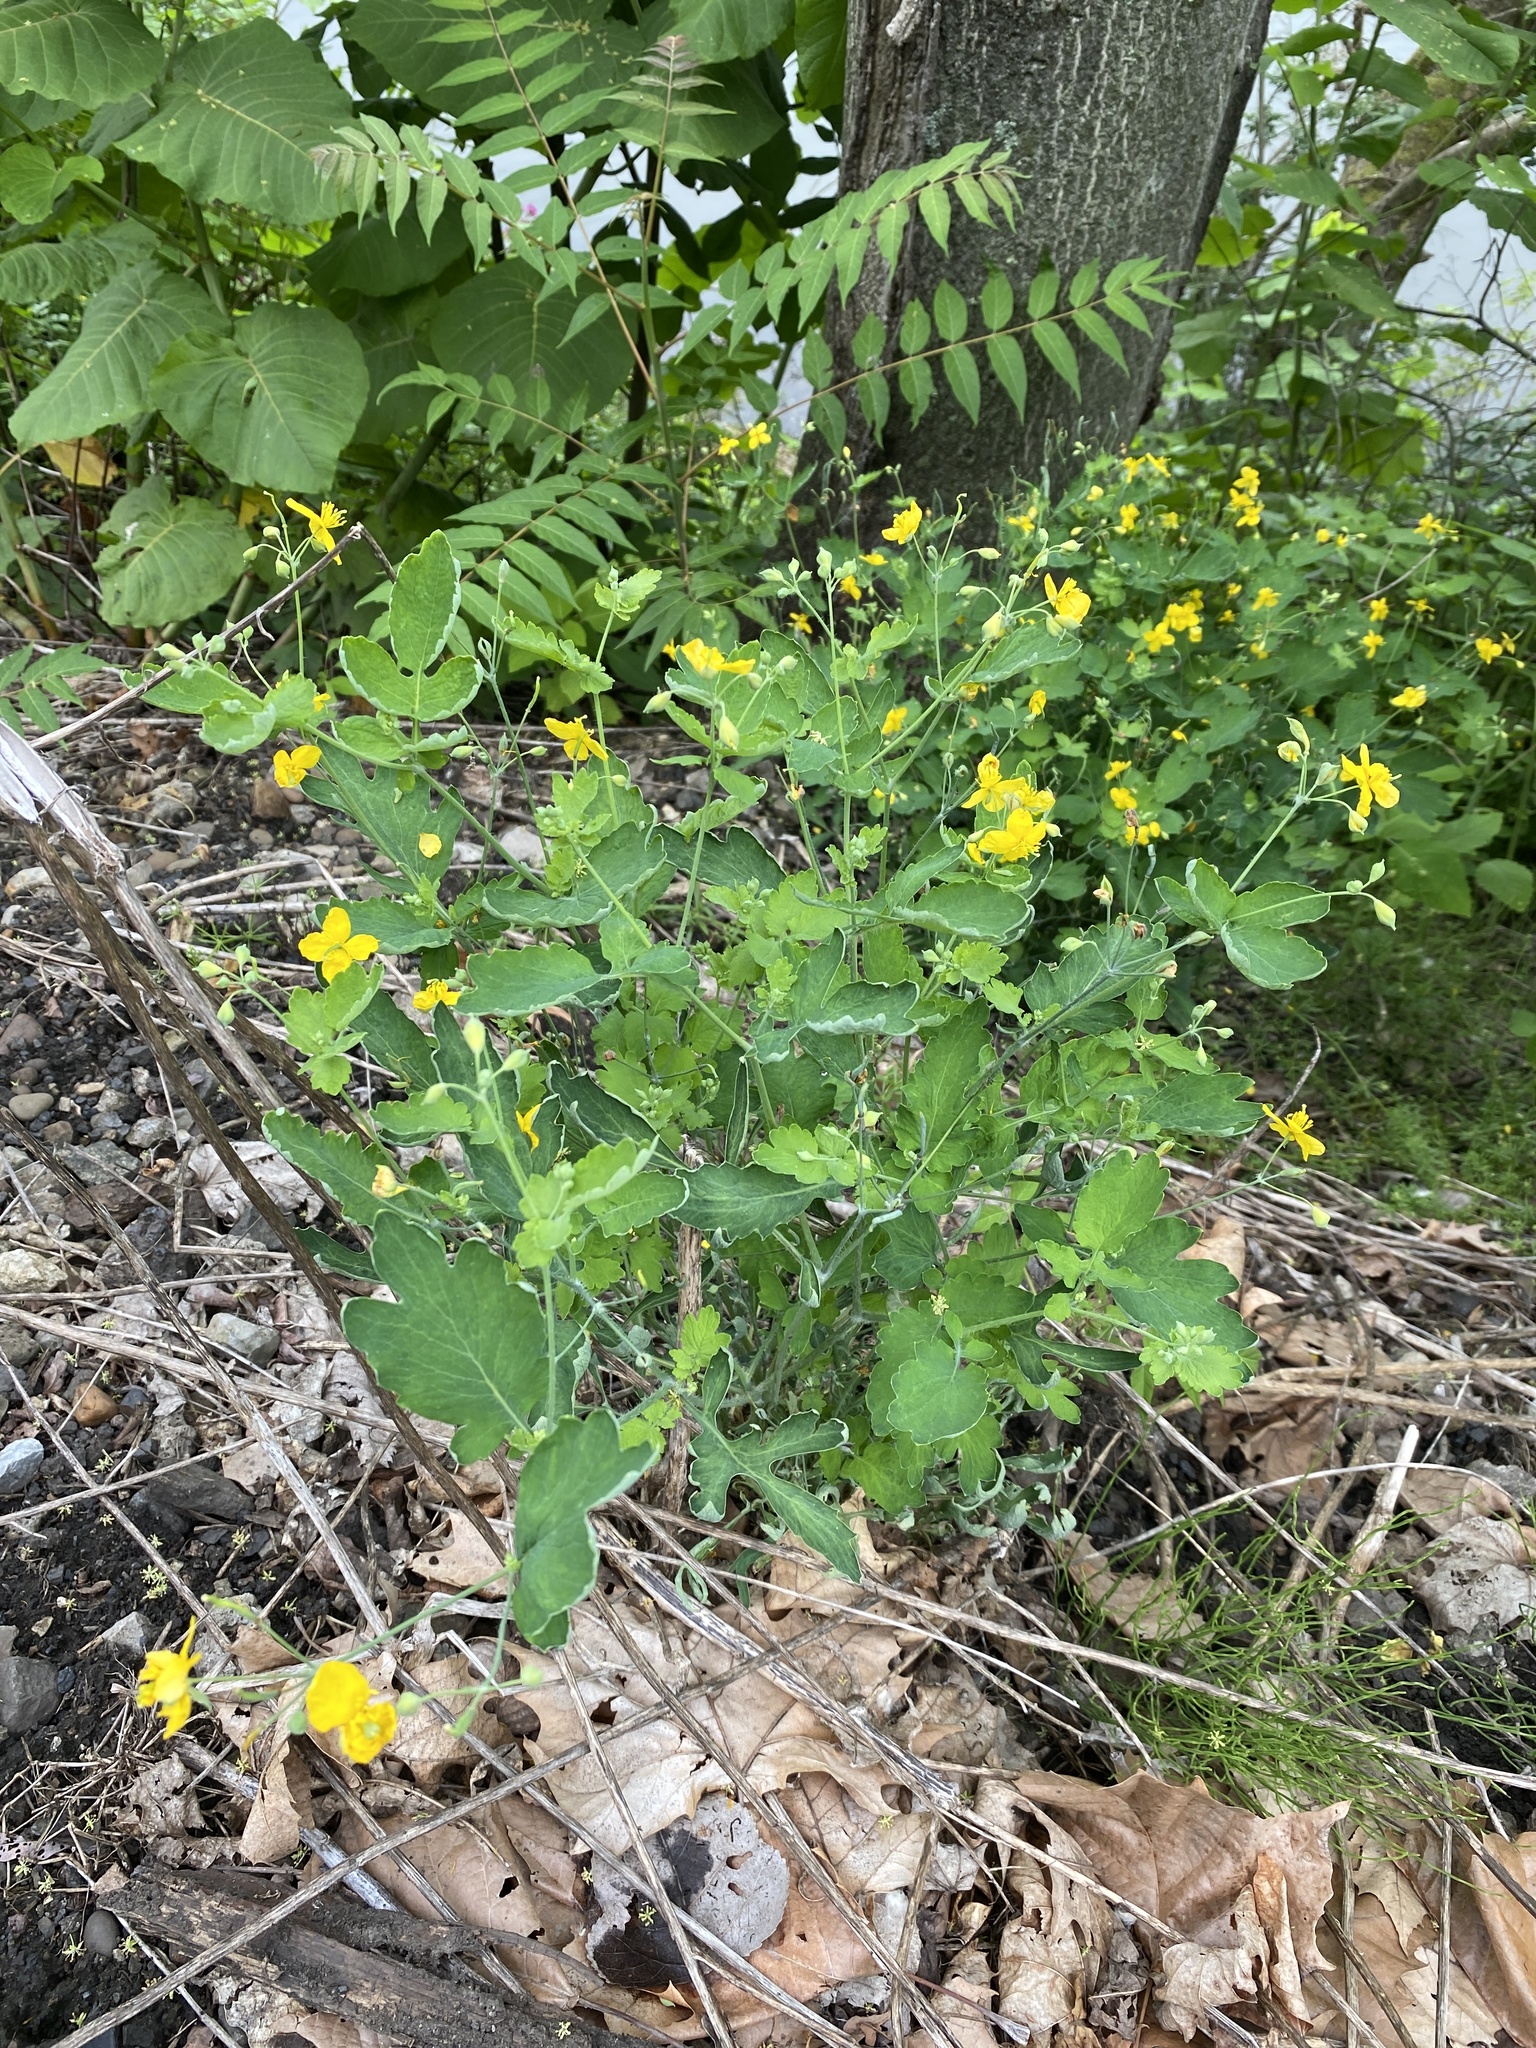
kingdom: Plantae
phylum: Tracheophyta
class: Magnoliopsida
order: Ranunculales
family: Papaveraceae
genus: Chelidonium
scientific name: Chelidonium majus
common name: Greater celandine
